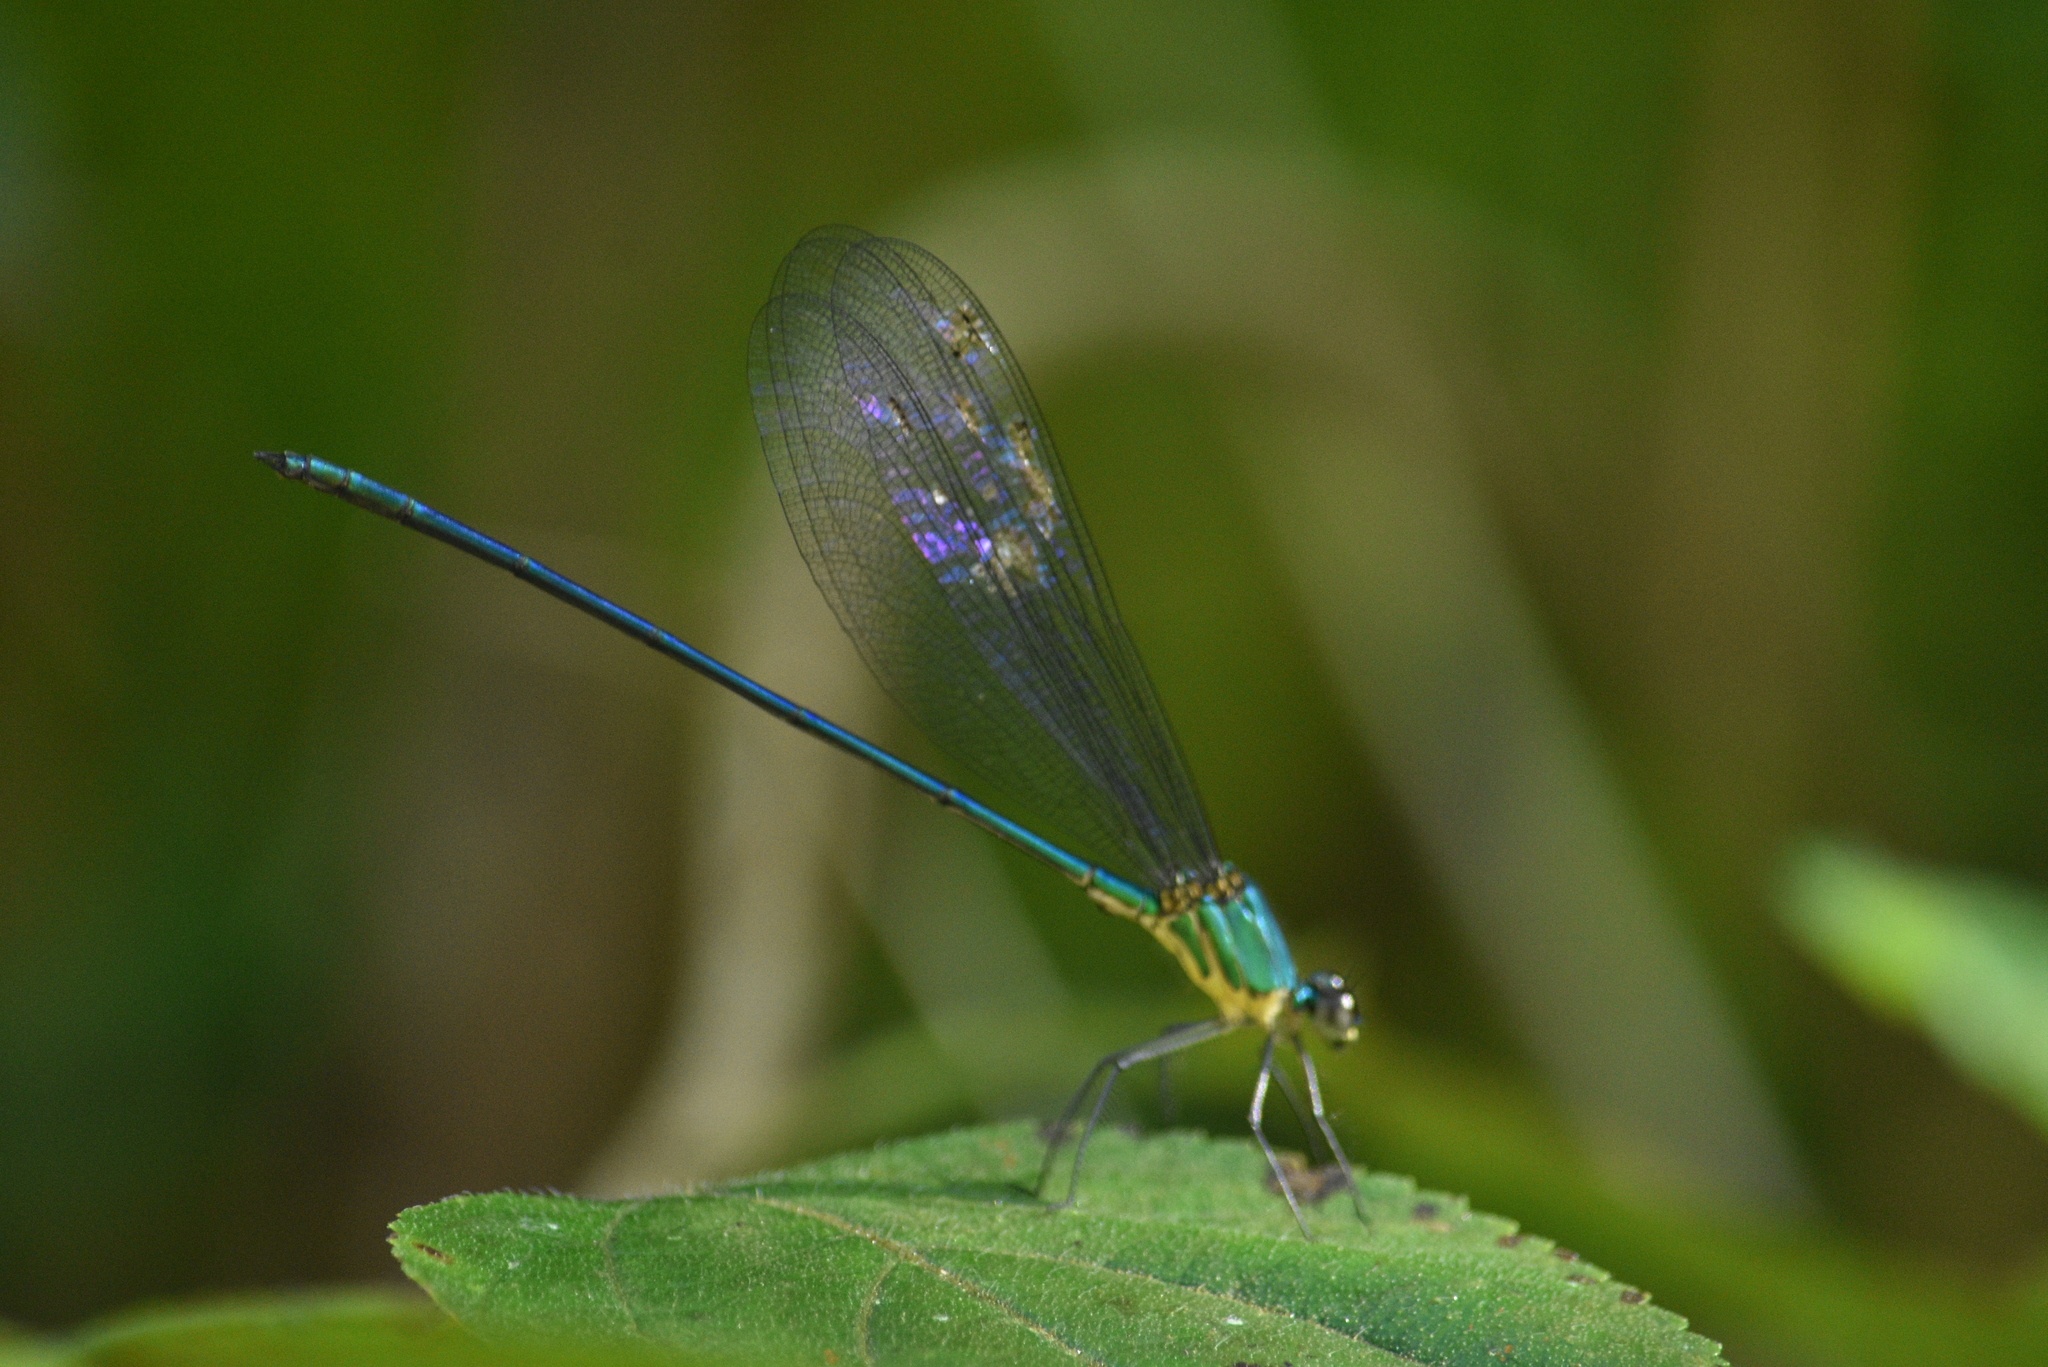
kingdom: Animalia
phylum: Arthropoda
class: Insecta
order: Odonata
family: Calopterygidae
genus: Vestalis
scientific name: Vestalis gracilis
